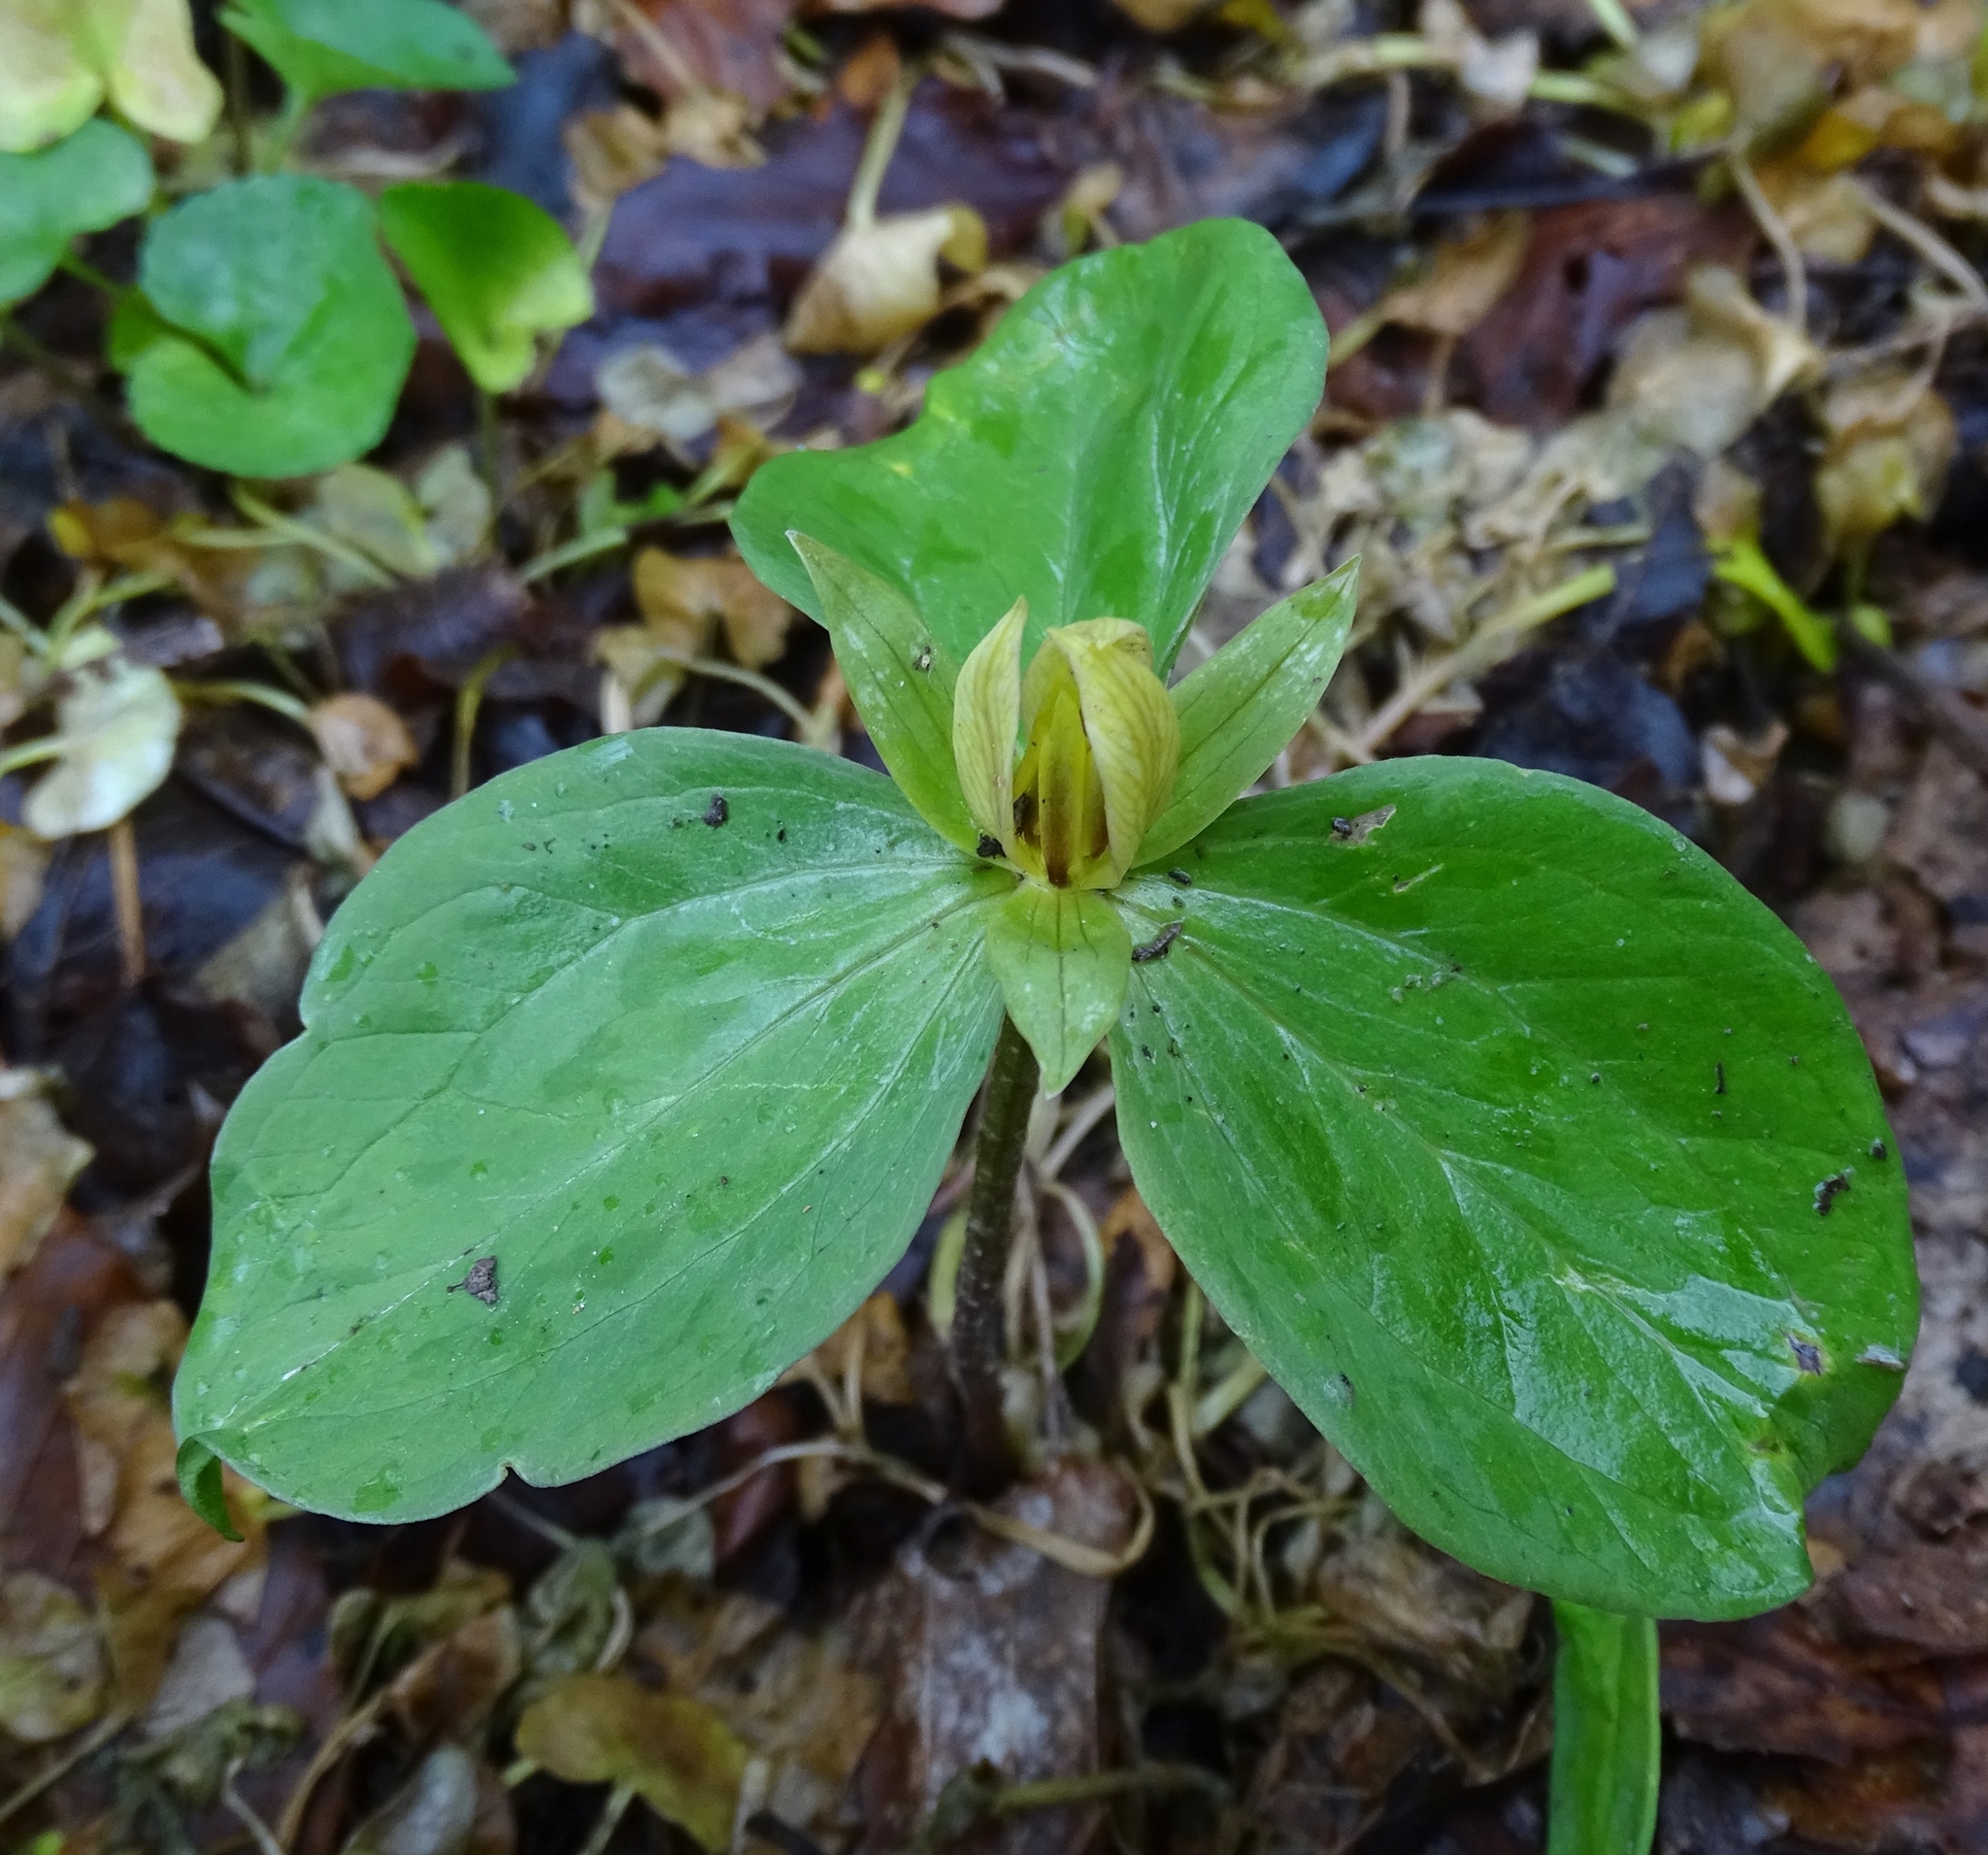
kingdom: Plantae
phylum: Tracheophyta
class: Liliopsida
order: Liliales
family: Melanthiaceae
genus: Trillium
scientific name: Trillium sessile
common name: Sessile trillium
